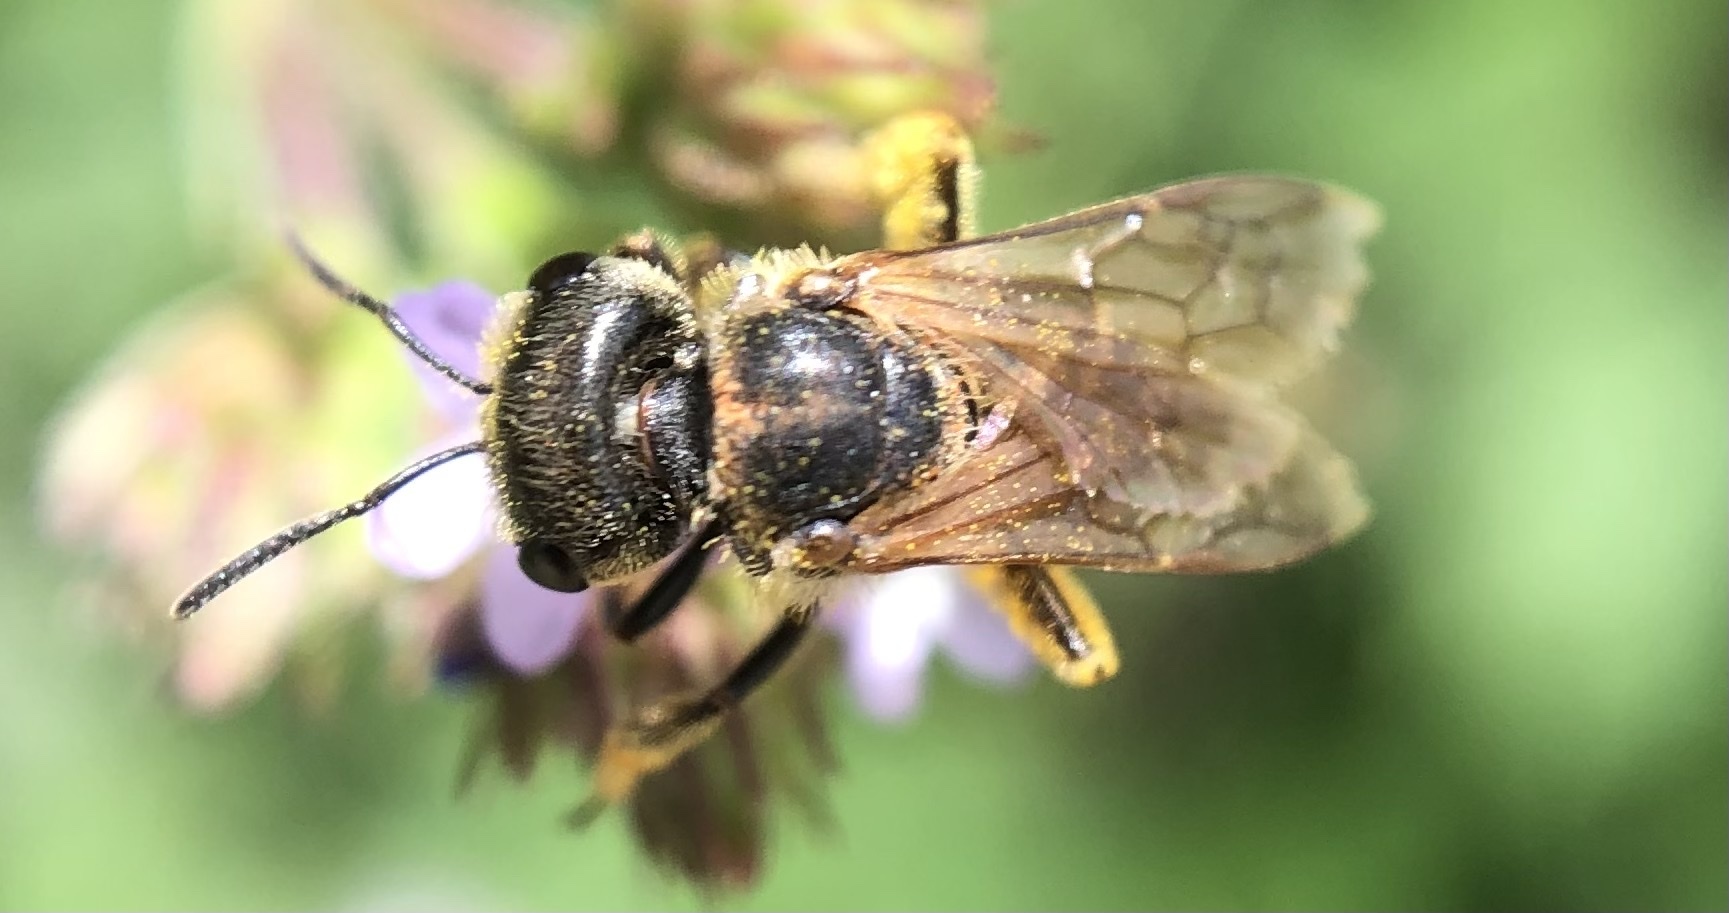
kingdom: Animalia
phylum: Arthropoda
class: Insecta
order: Hymenoptera
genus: Odontalictus
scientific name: Odontalictus
